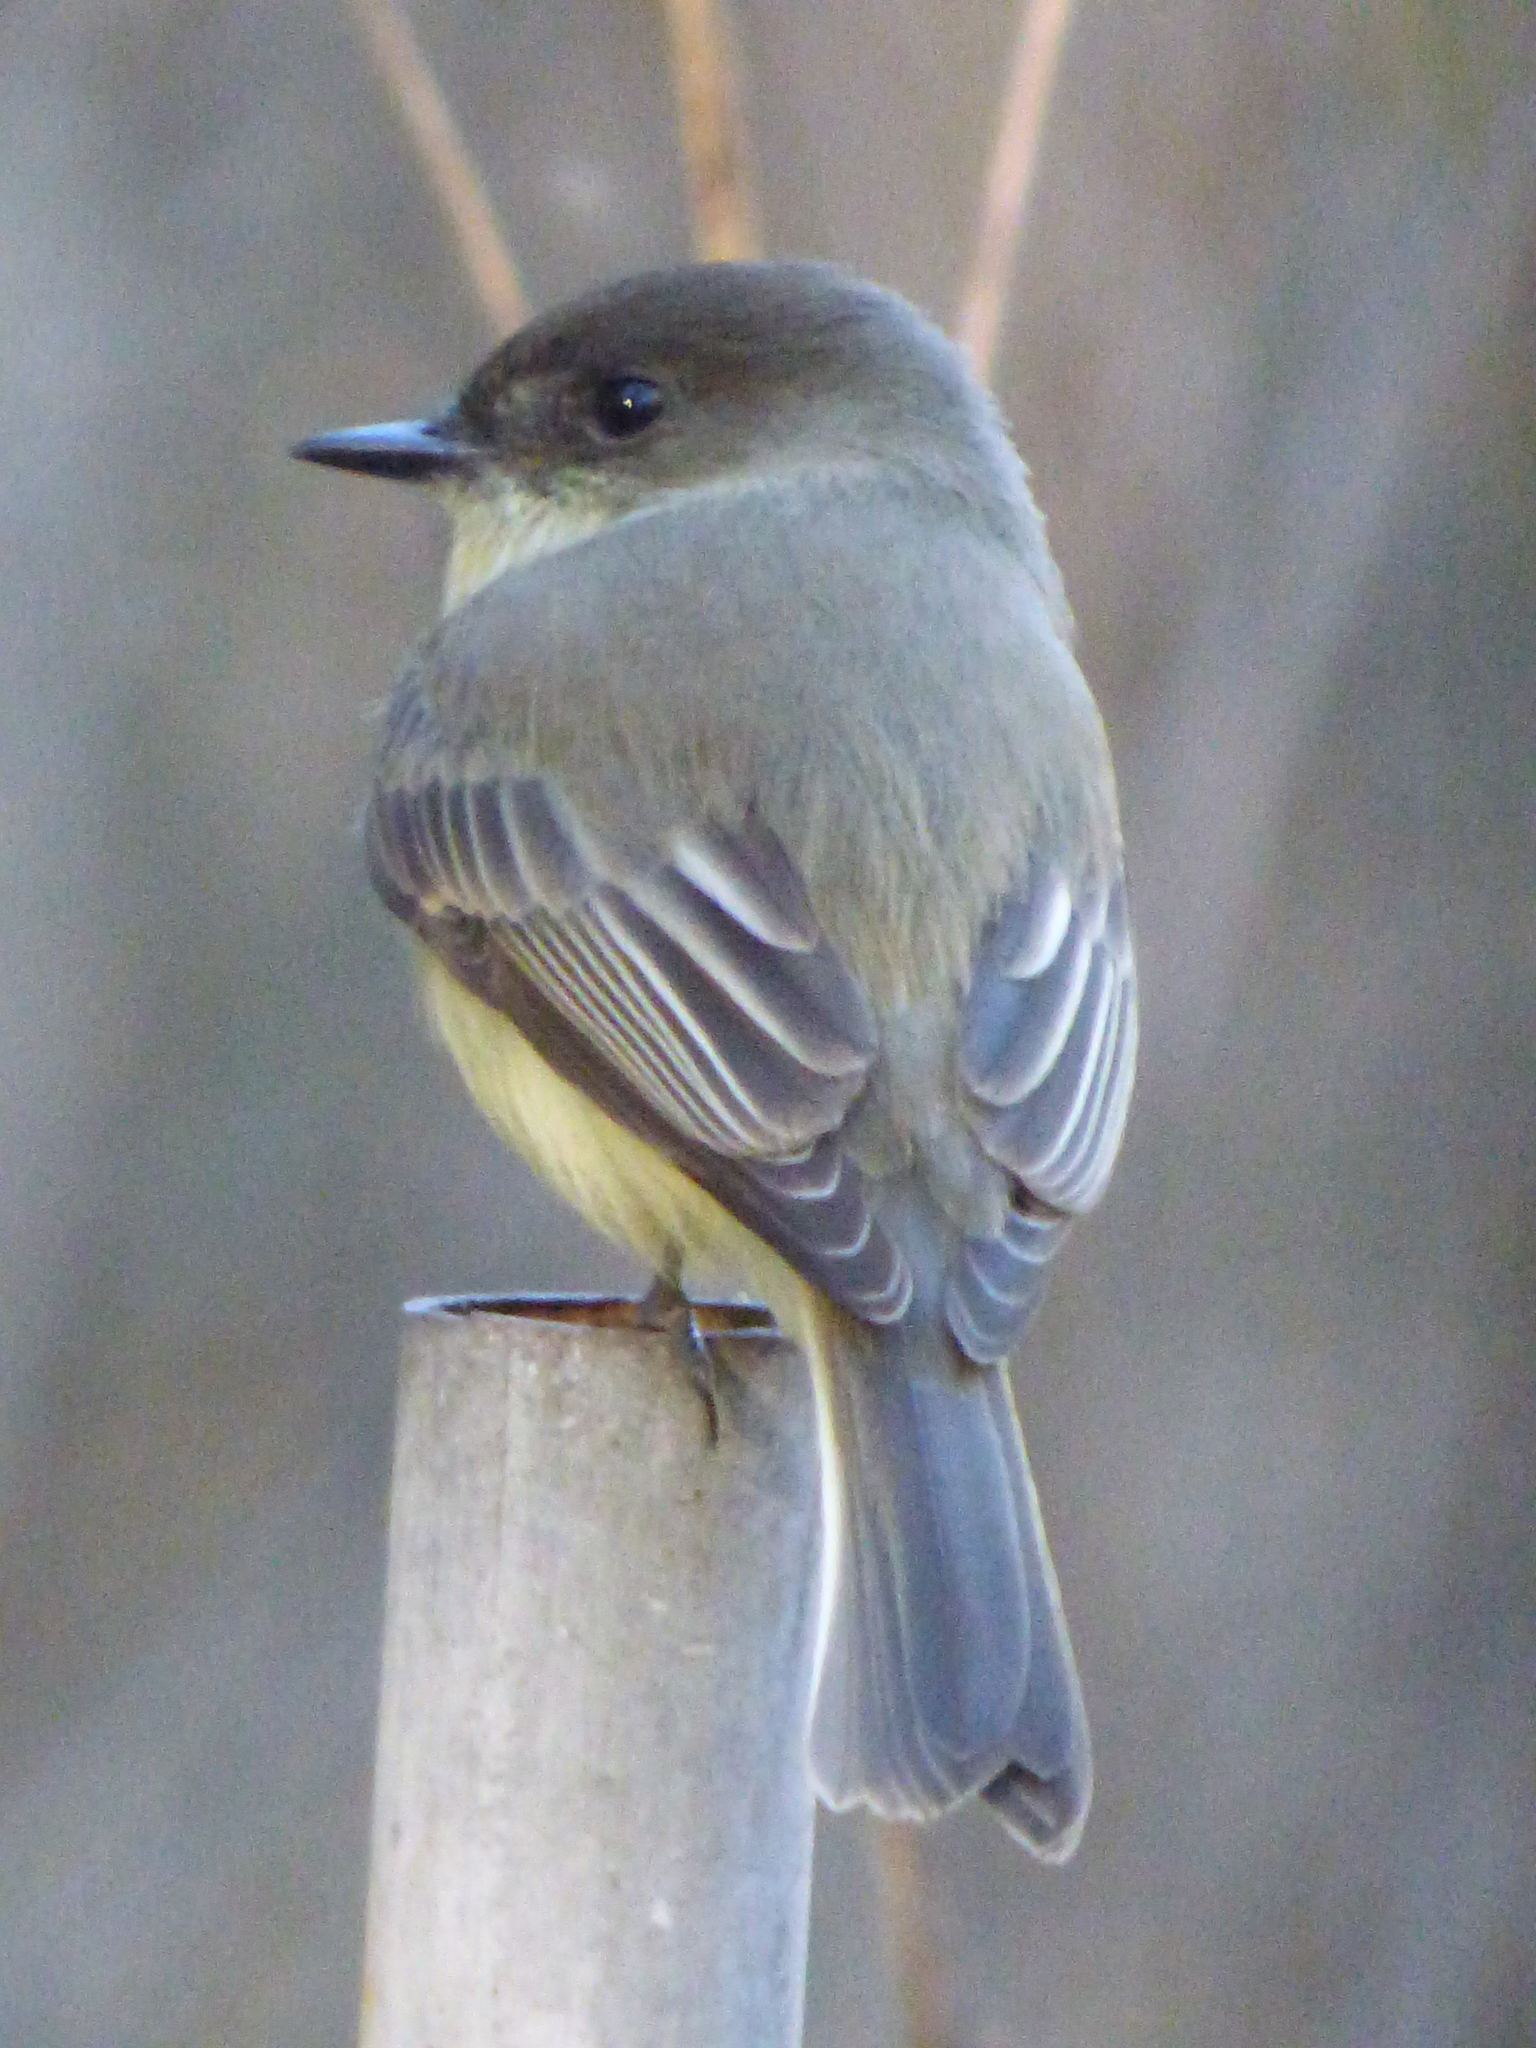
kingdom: Animalia
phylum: Chordata
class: Aves
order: Passeriformes
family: Tyrannidae
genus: Sayornis
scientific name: Sayornis phoebe
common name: Eastern phoebe
